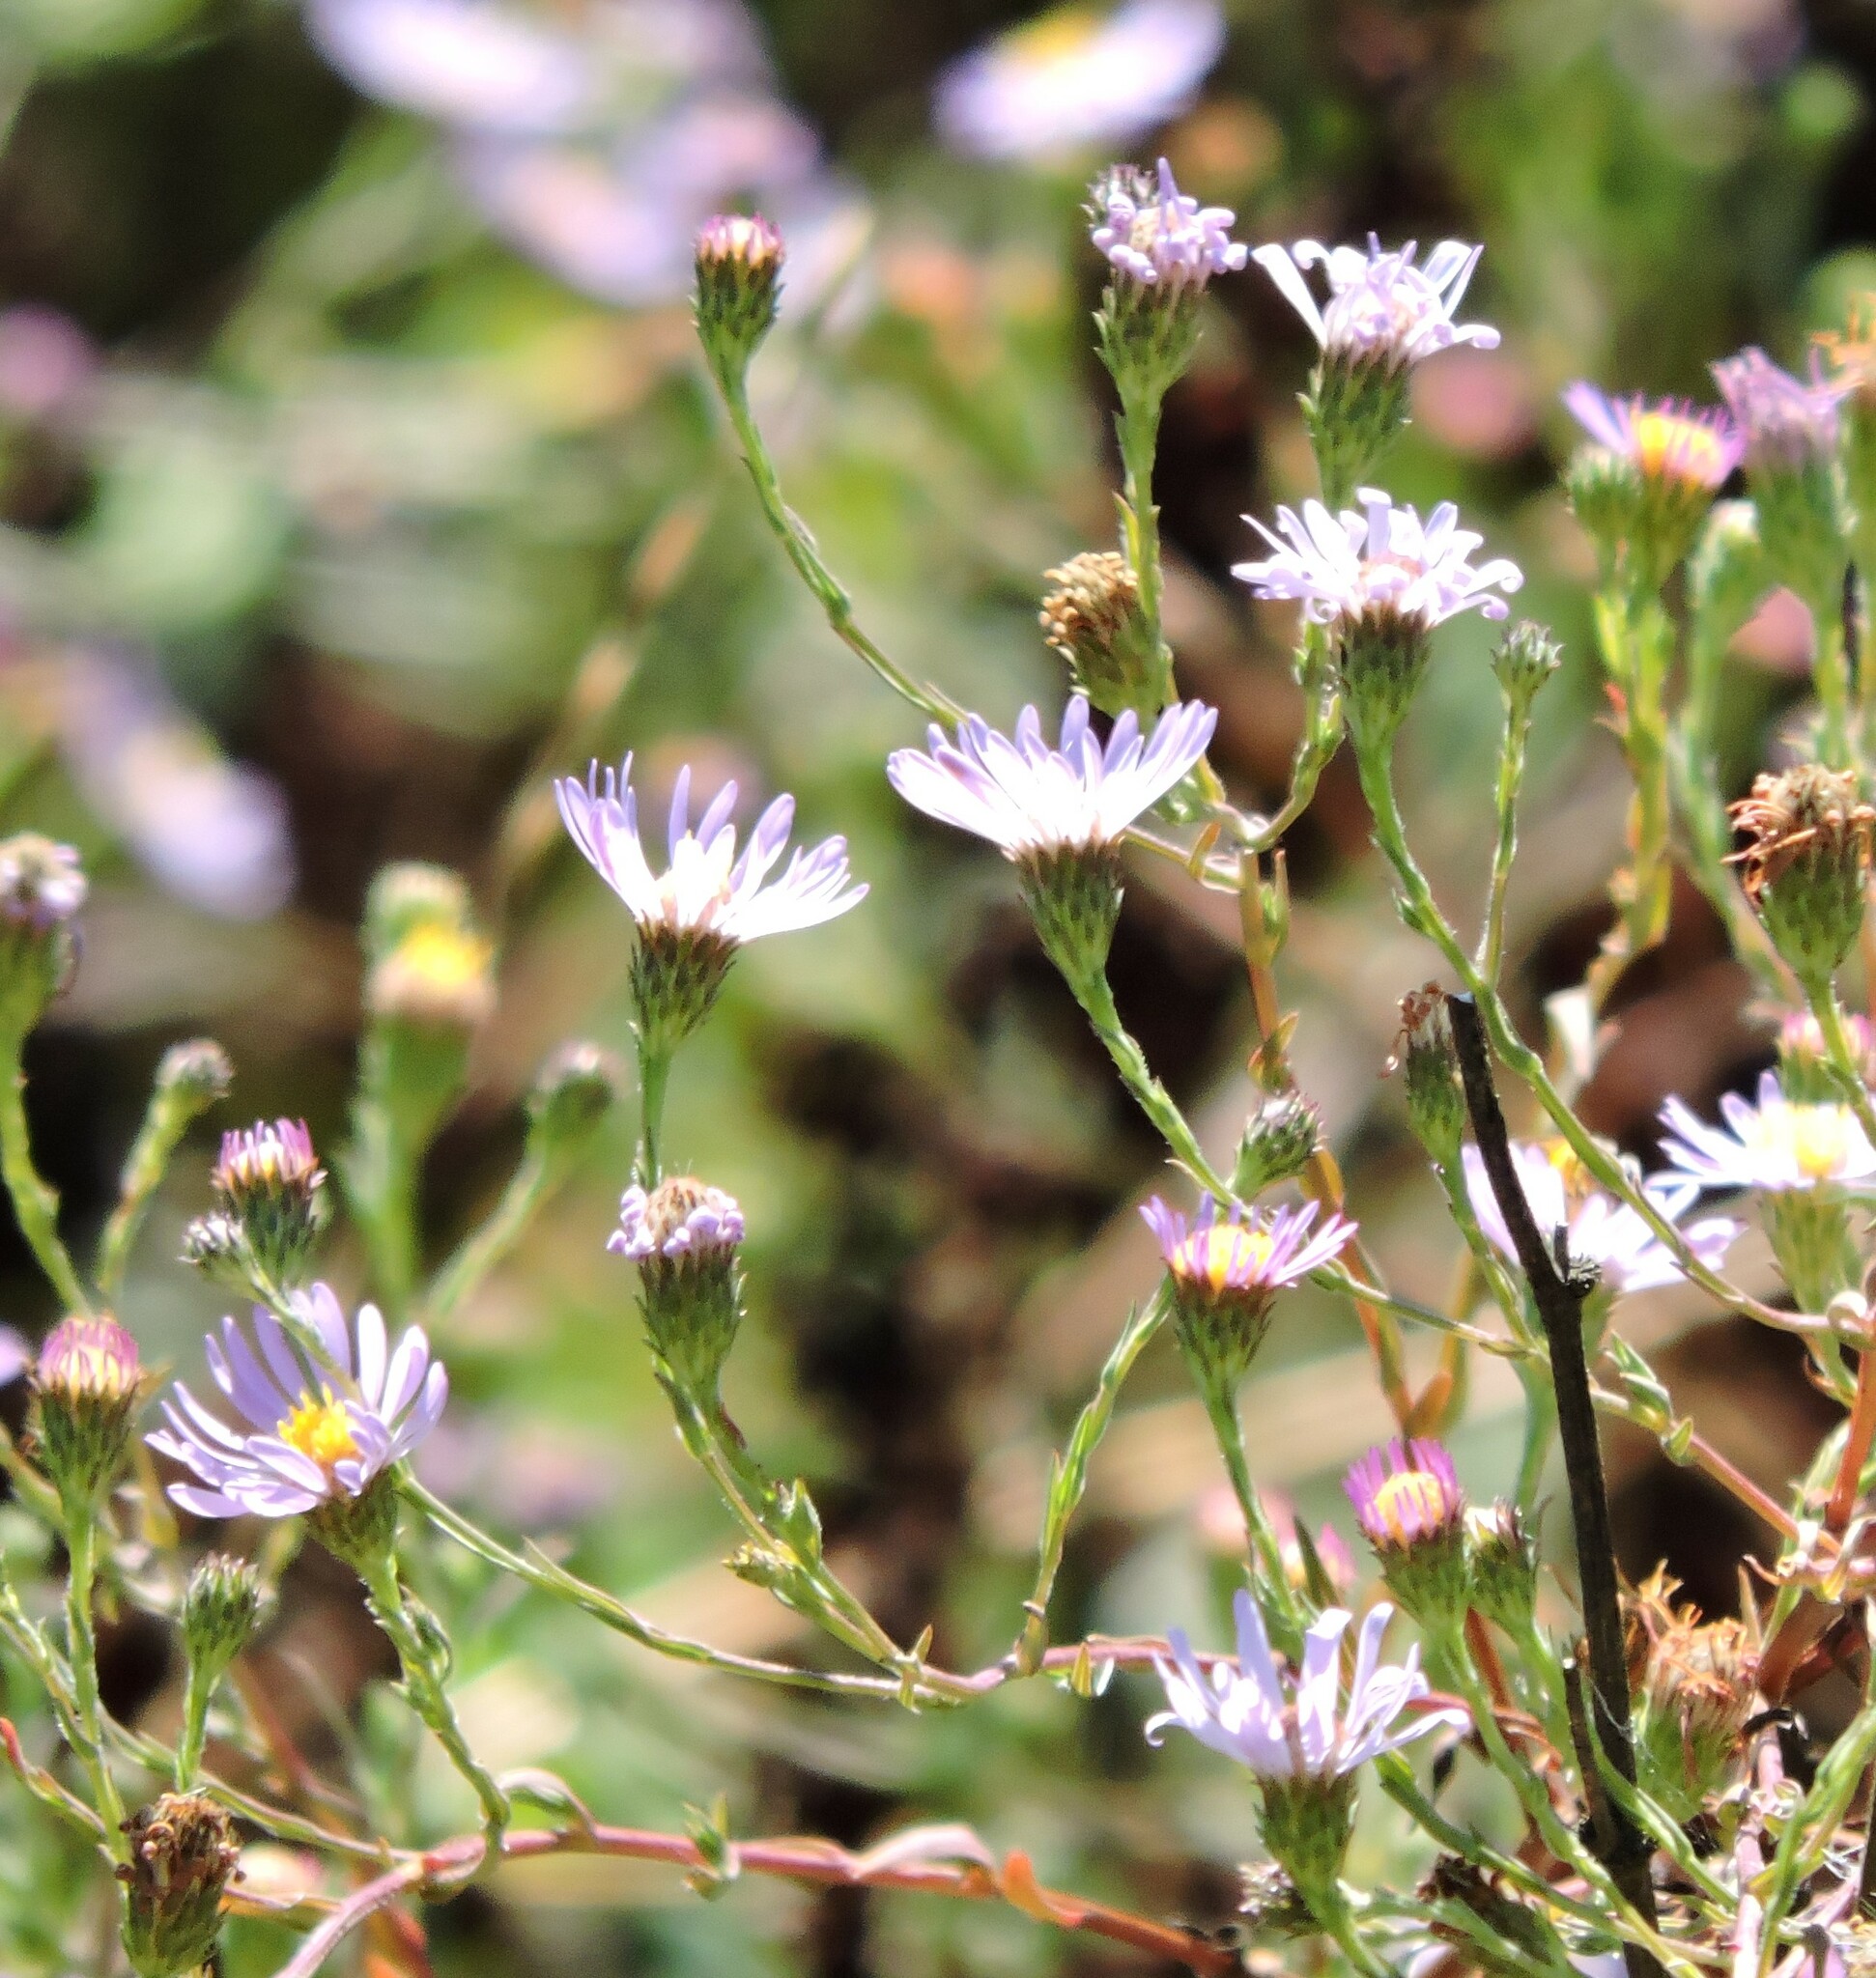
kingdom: Plantae
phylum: Tracheophyta
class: Magnoliopsida
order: Asterales
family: Asteraceae
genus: Corethrogyne
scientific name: Corethrogyne filaginifolia
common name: Sand-aster
